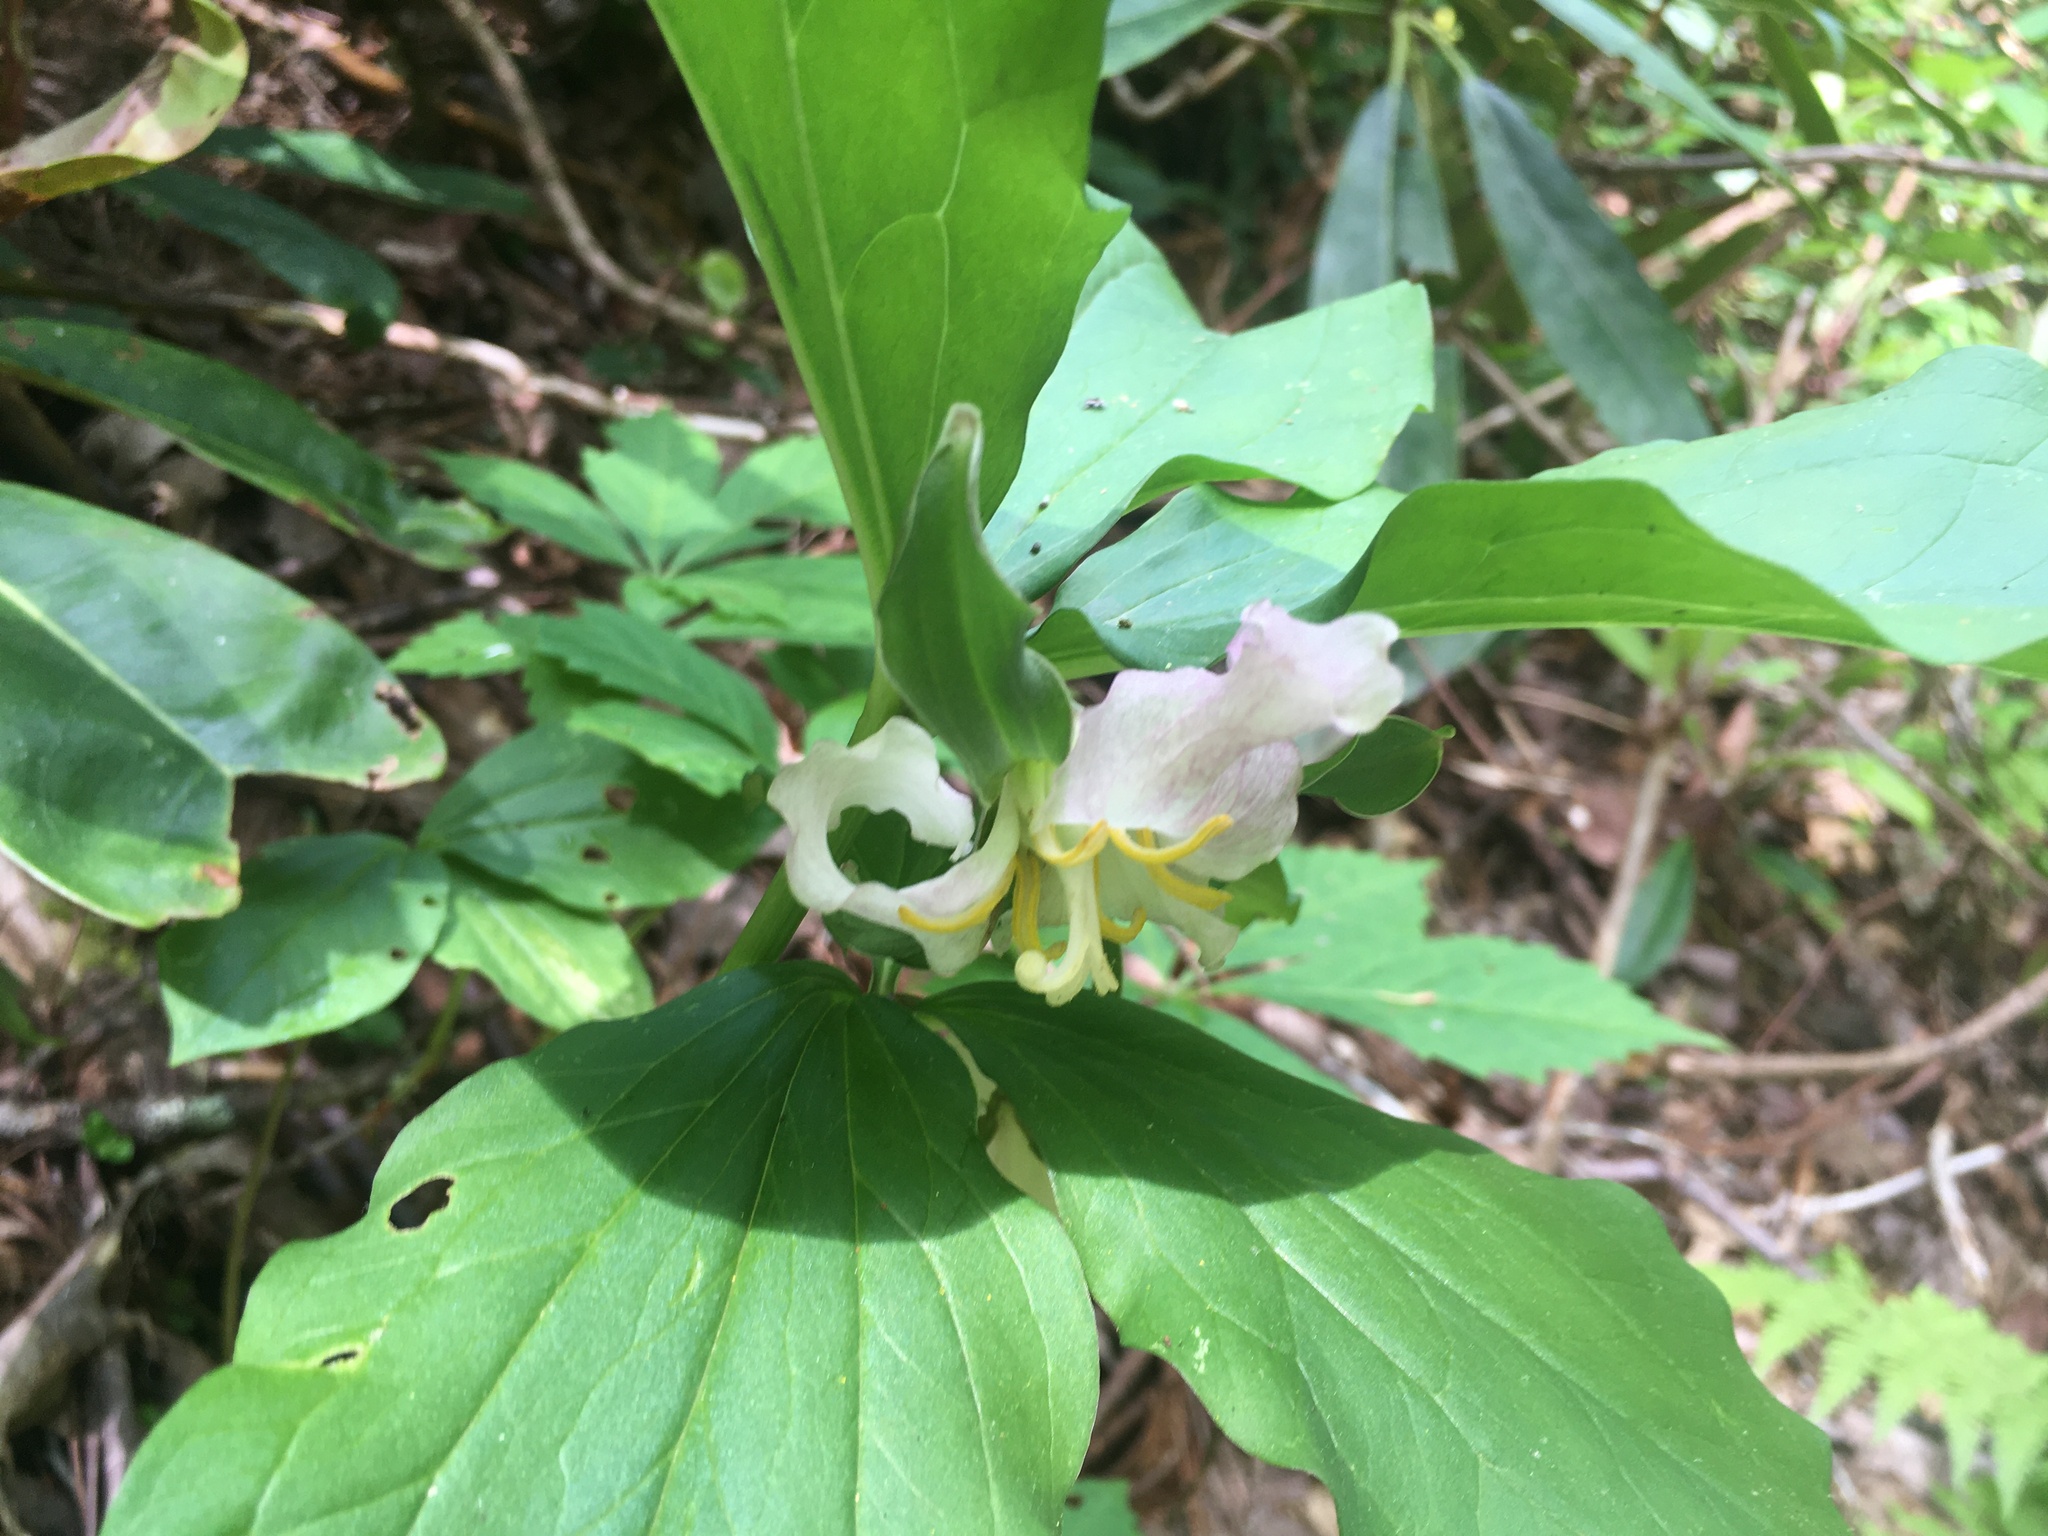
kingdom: Plantae
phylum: Tracheophyta
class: Liliopsida
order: Liliales
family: Melanthiaceae
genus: Trillium
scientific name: Trillium catesbaei
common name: Bashful trillium
